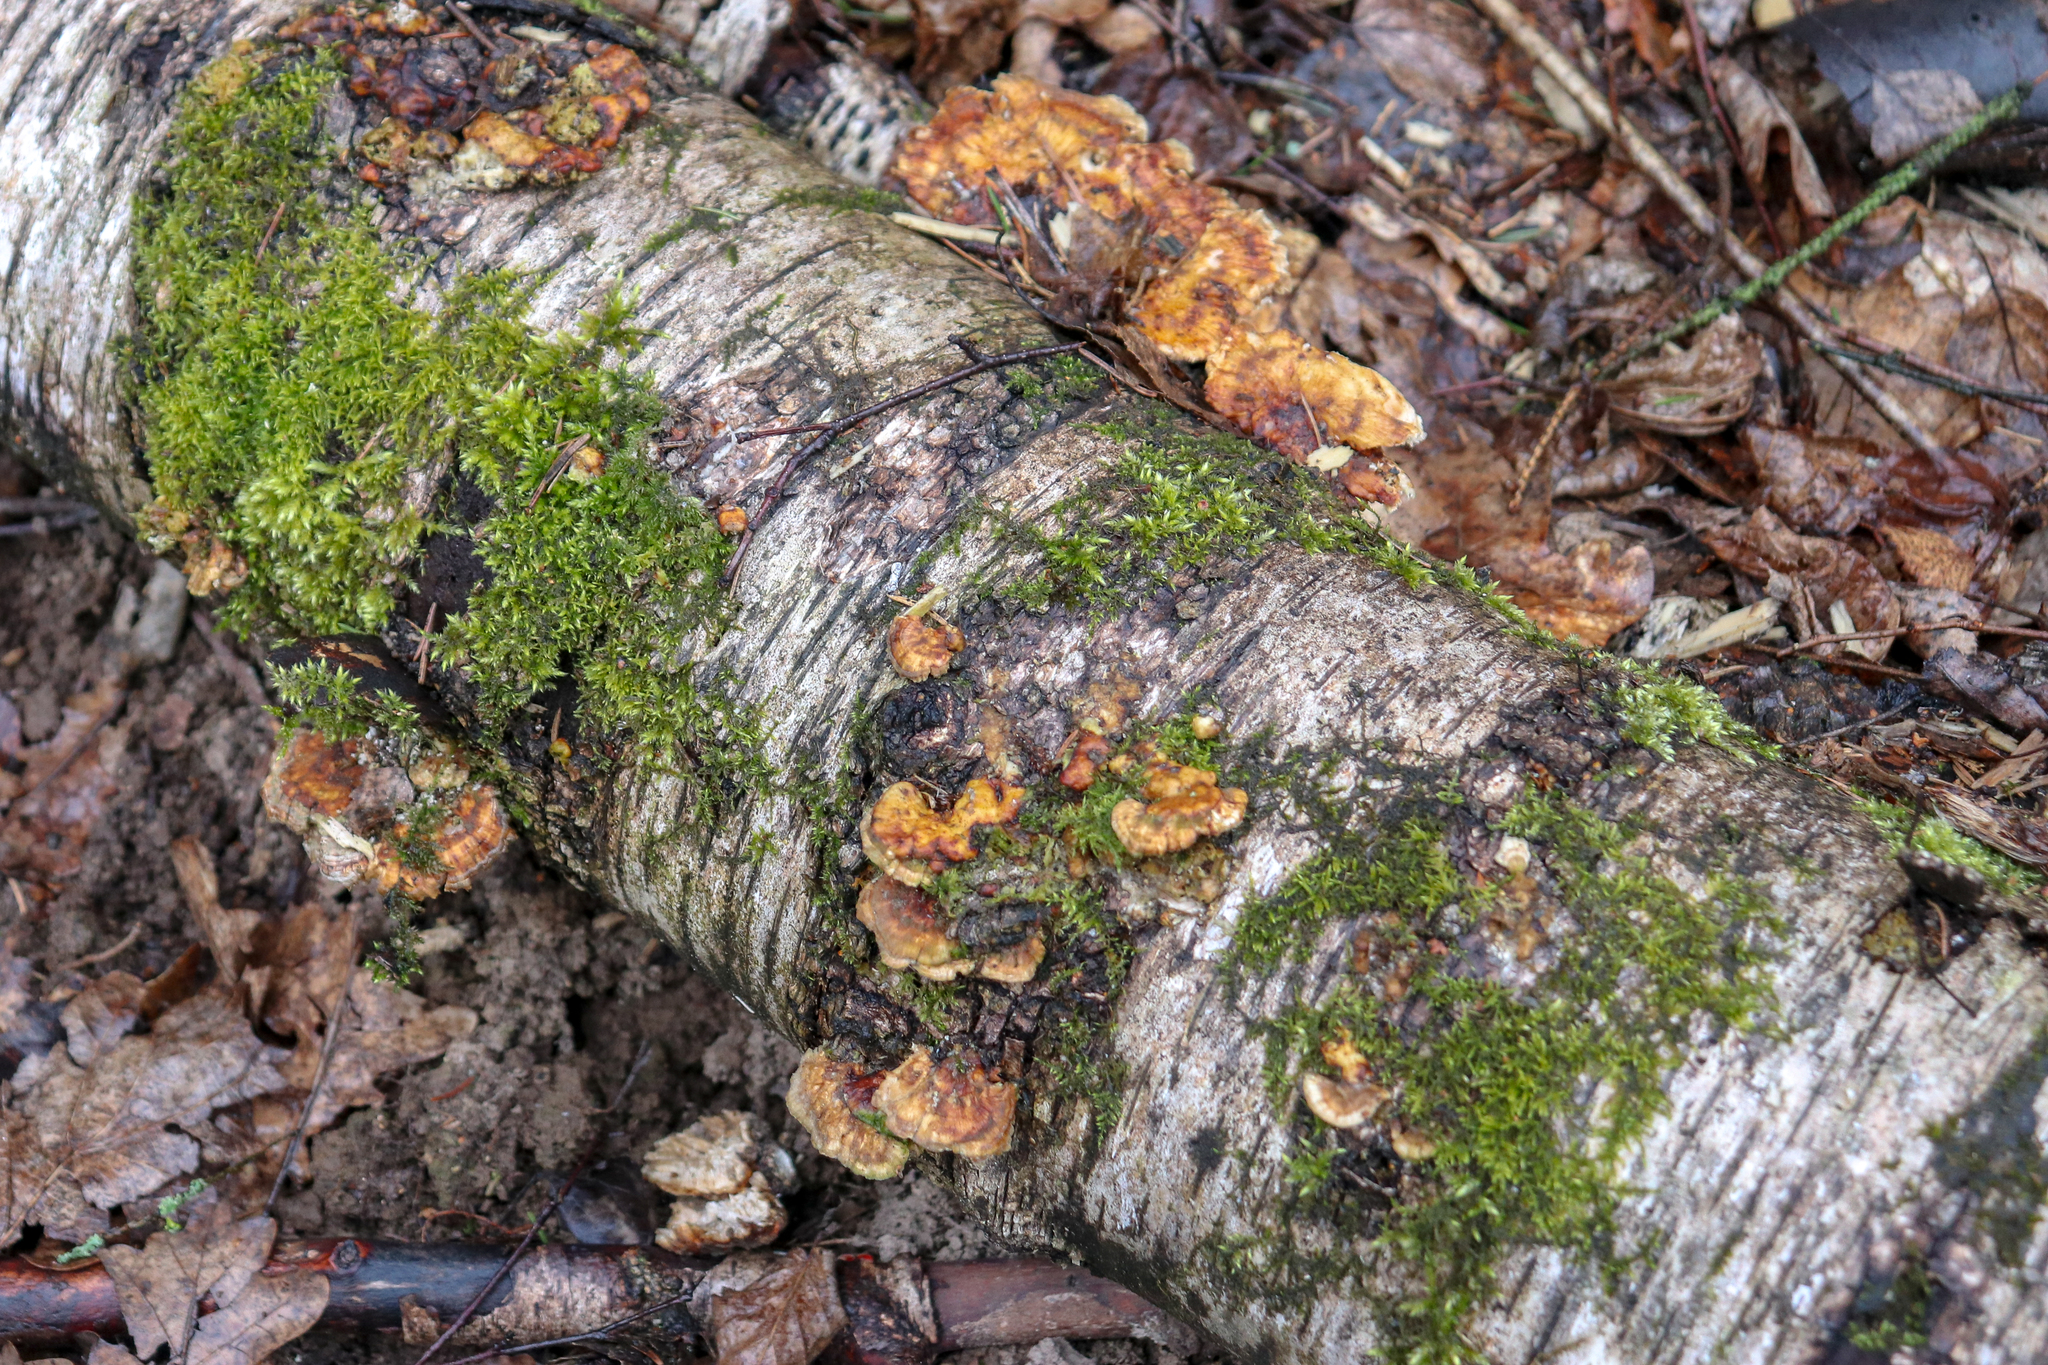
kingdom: Fungi
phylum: Basidiomycota
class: Agaricomycetes
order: Polyporales
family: Polyporaceae
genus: Trametes
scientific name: Trametes ochracea
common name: Ochre bracket
